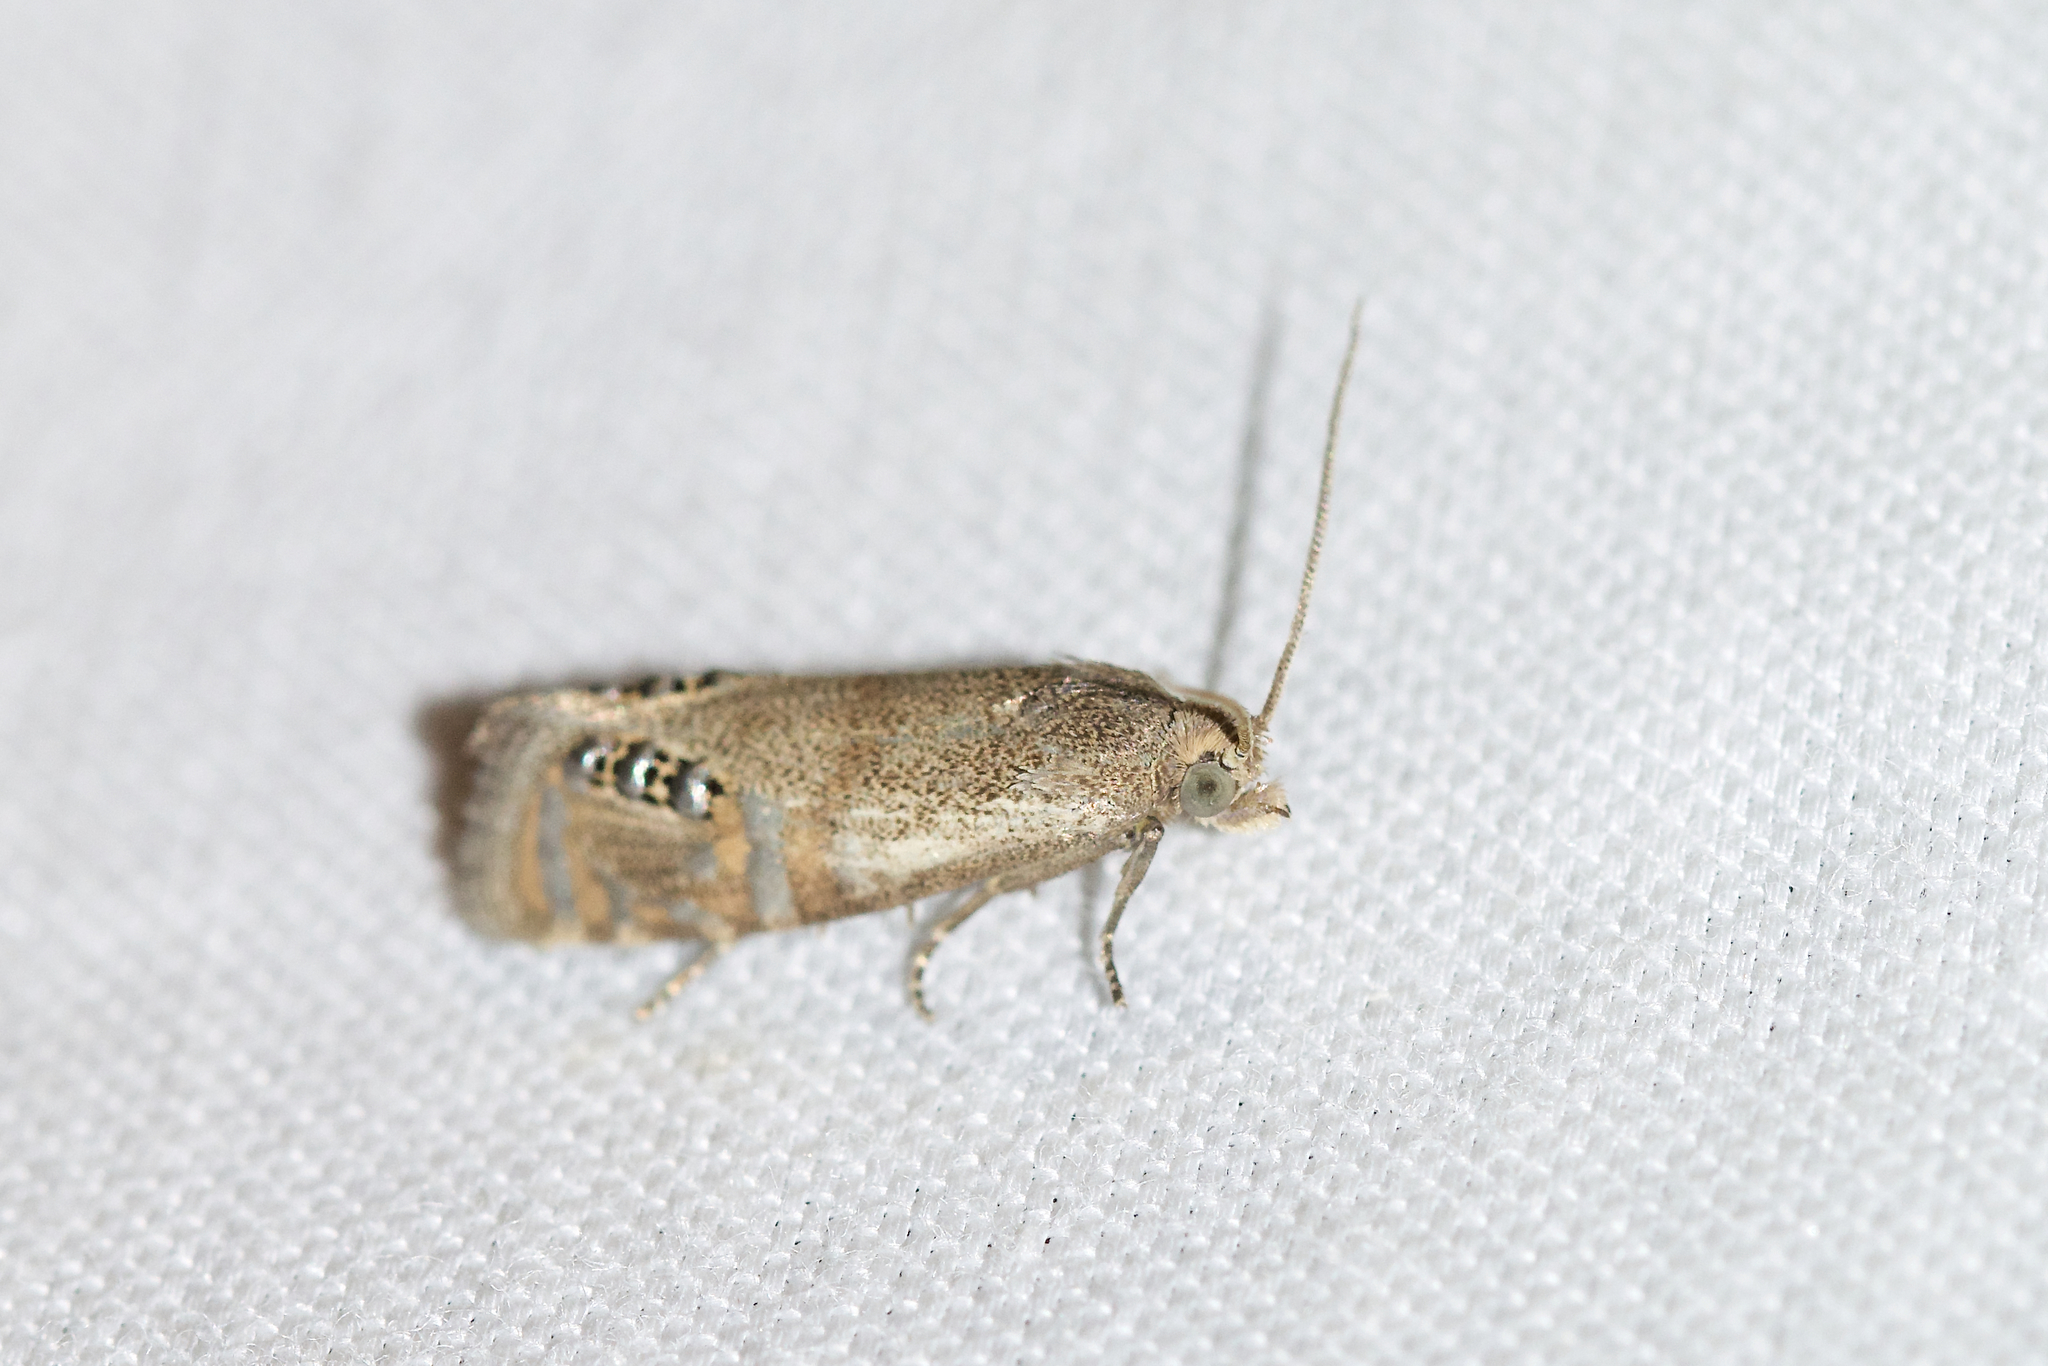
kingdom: Animalia
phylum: Arthropoda
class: Insecta
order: Lepidoptera
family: Tortricidae
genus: Pelochrista
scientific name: Pelochrista scintillana
